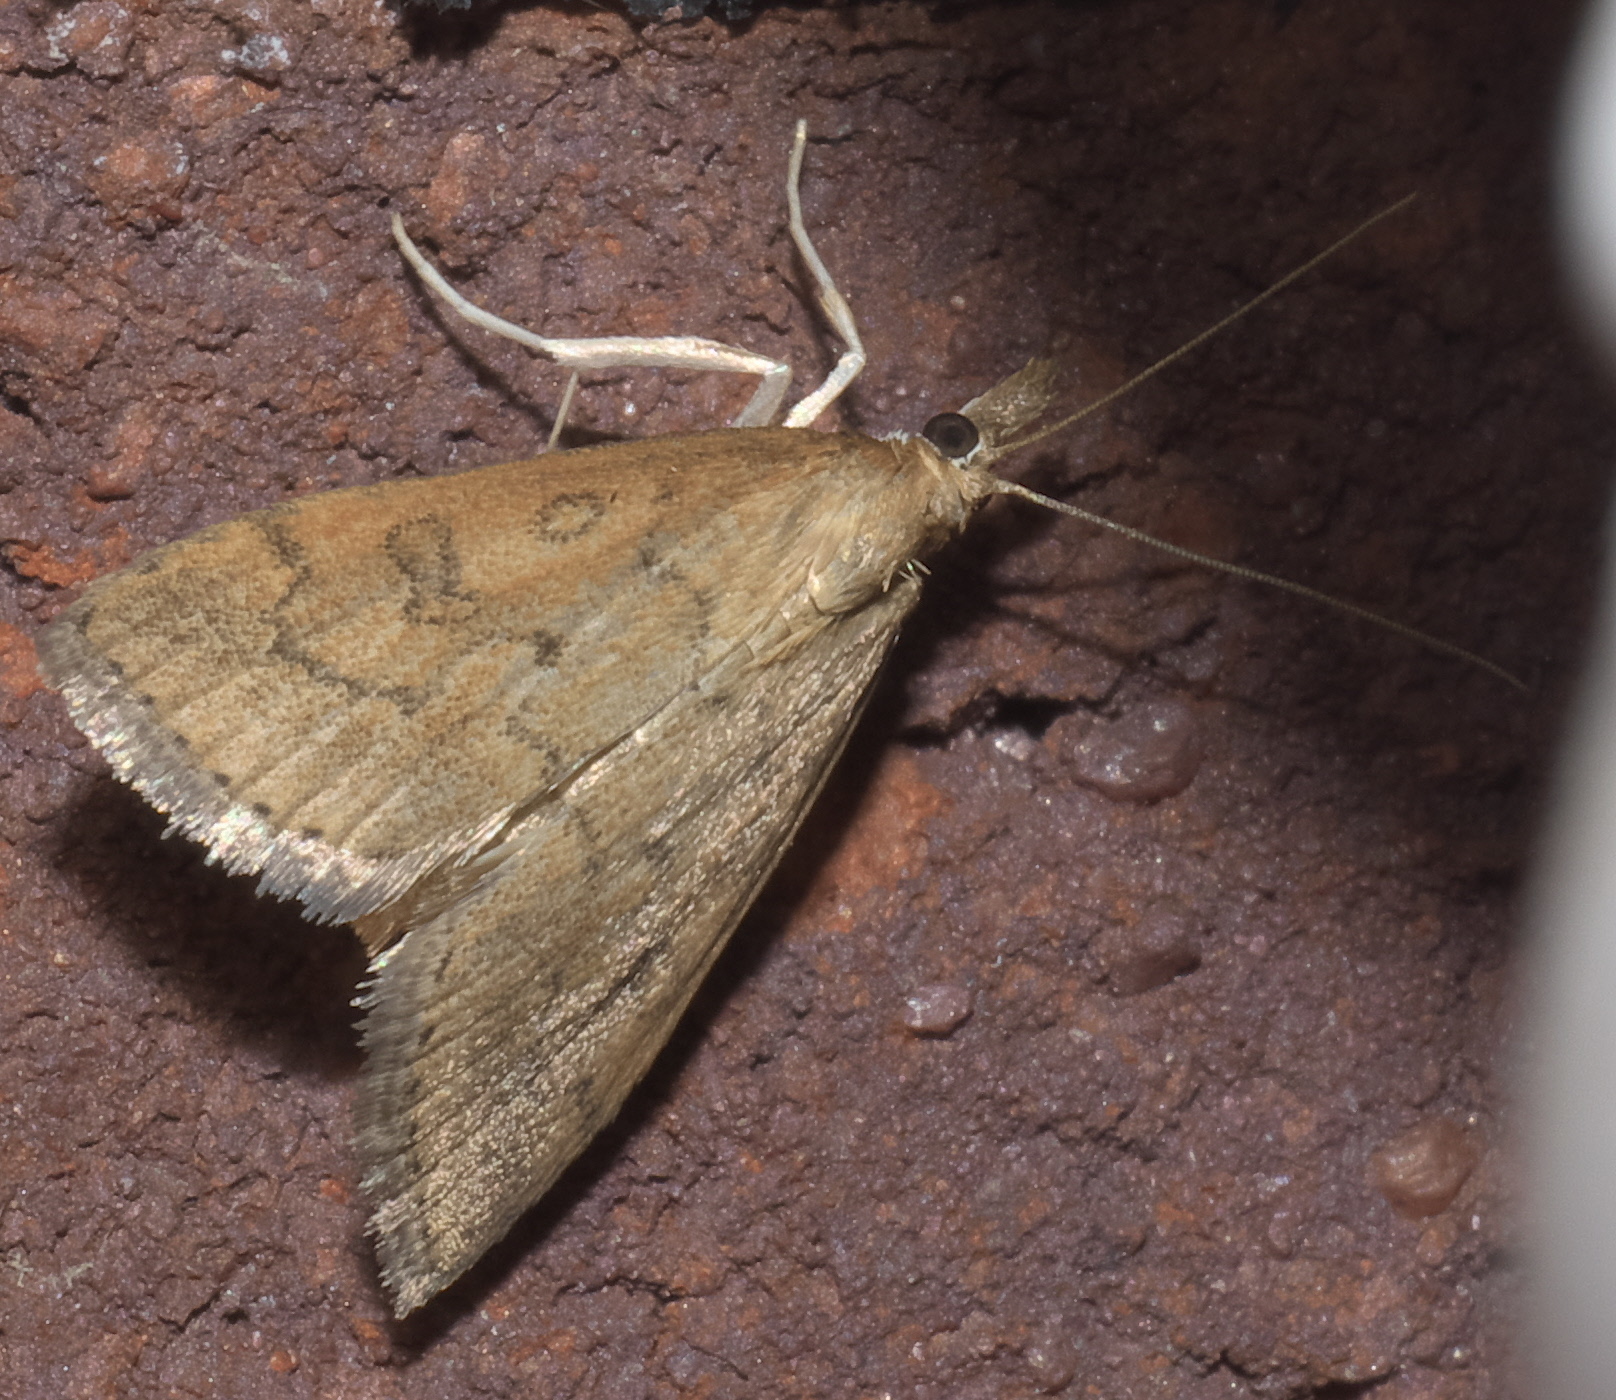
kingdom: Animalia
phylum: Arthropoda
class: Insecta
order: Lepidoptera
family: Crambidae
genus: Udea
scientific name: Udea rubigalis
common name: Celery leaftier moth
